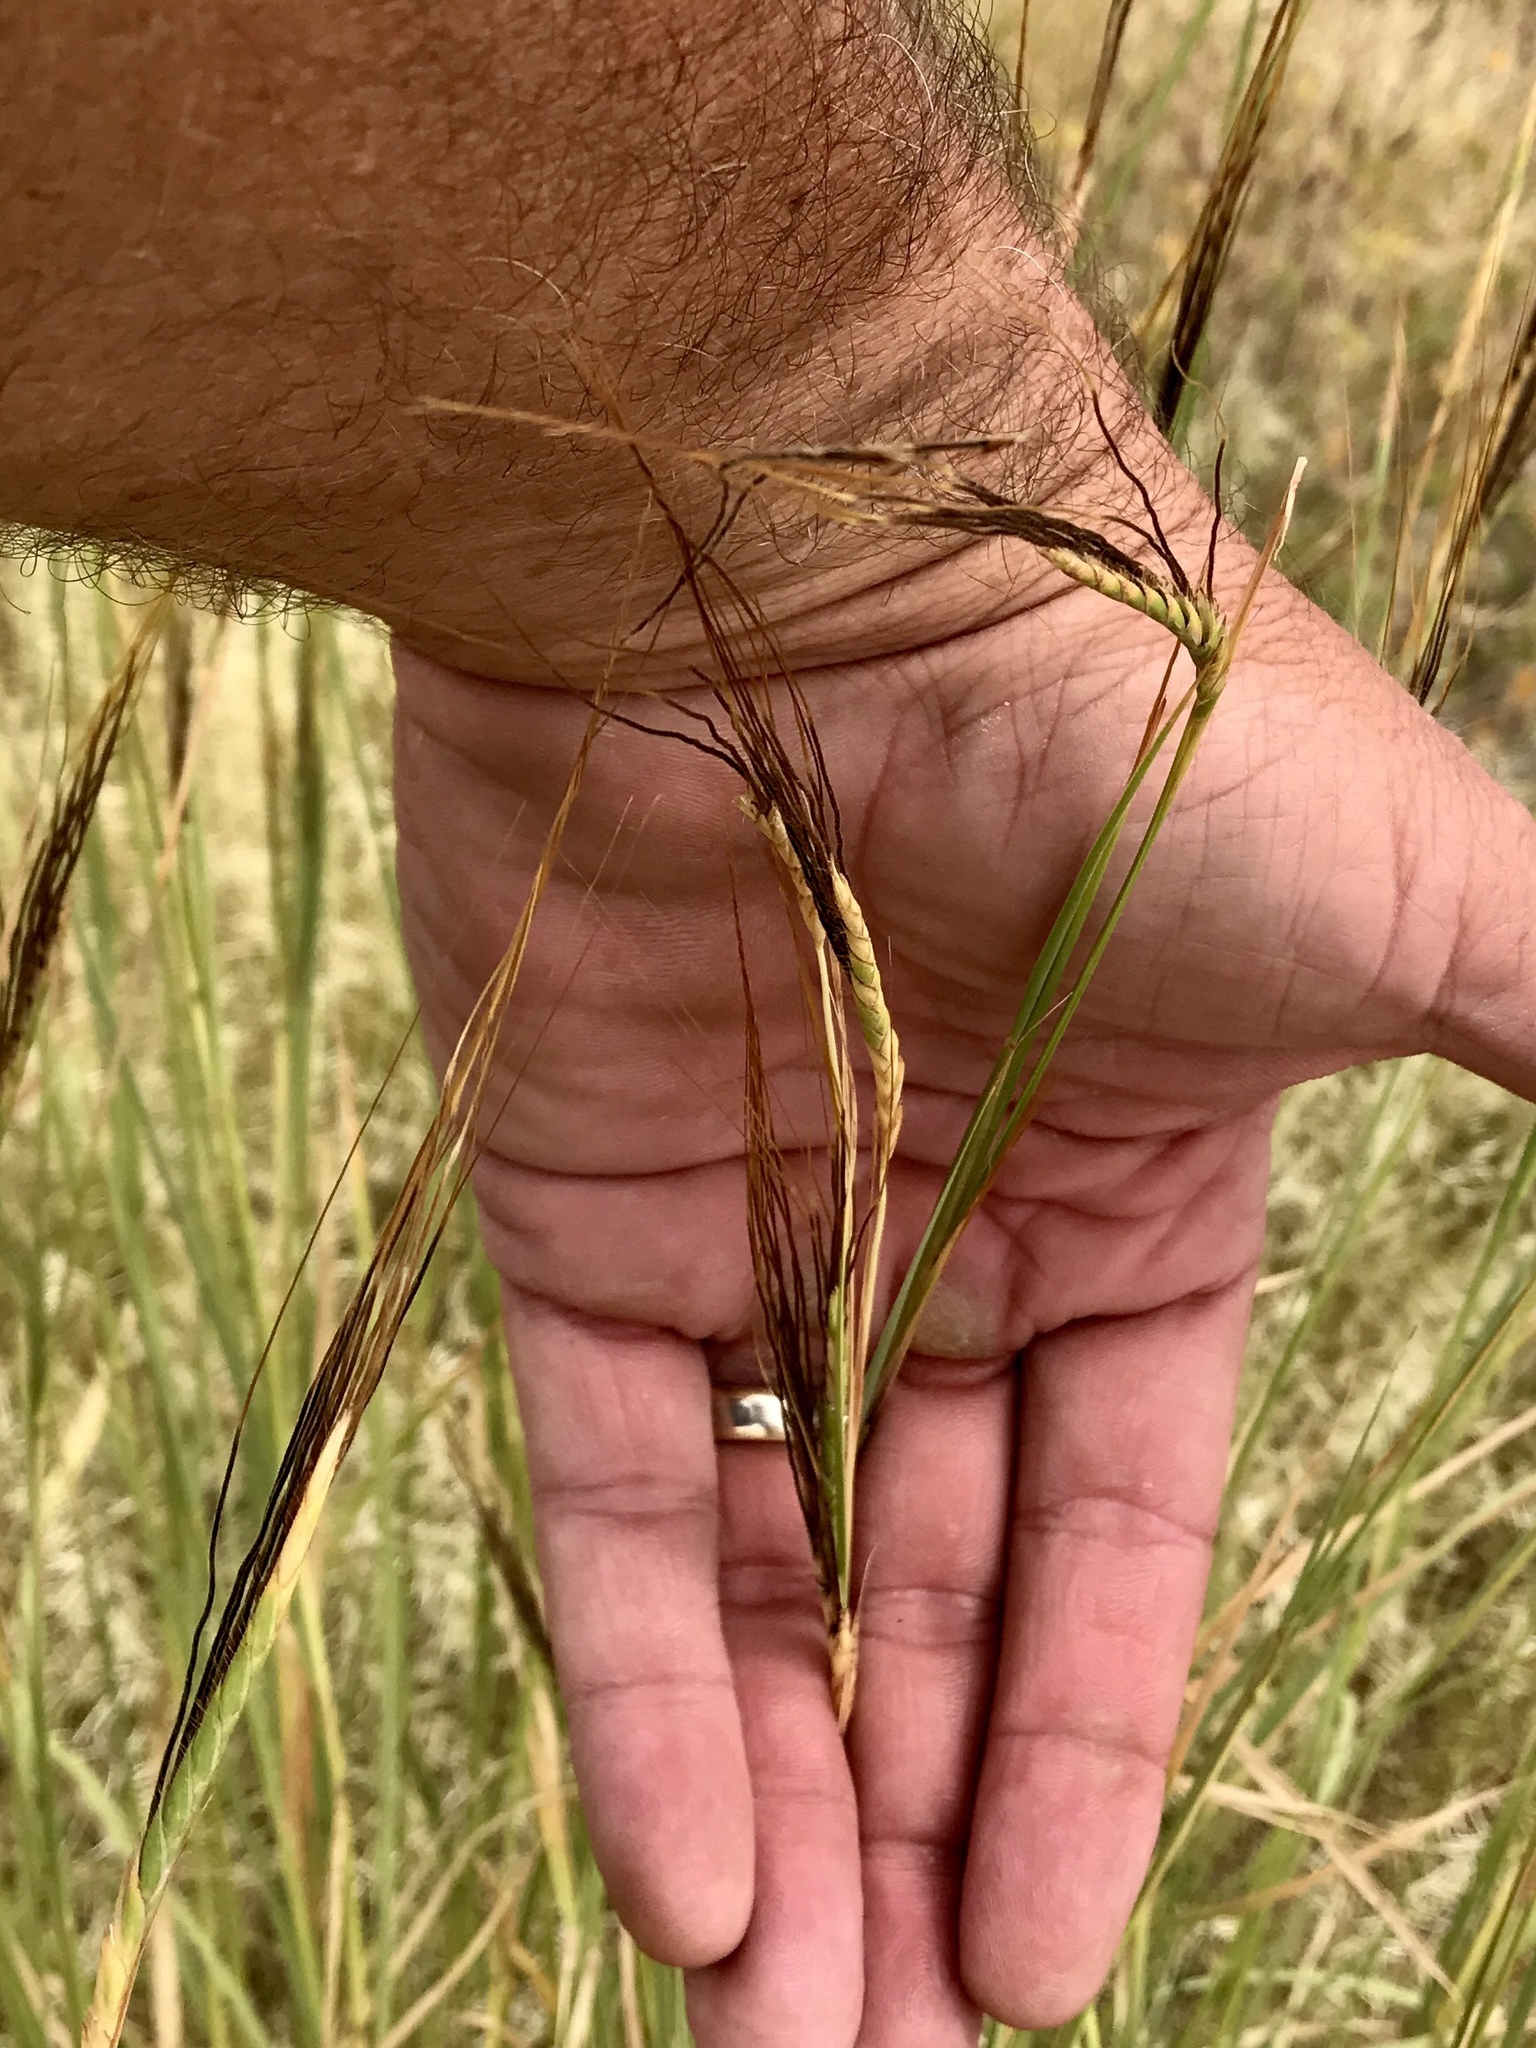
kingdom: Plantae
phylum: Tracheophyta
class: Liliopsida
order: Poales
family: Poaceae
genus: Heteropogon
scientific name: Heteropogon contortus
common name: Tanglehead
